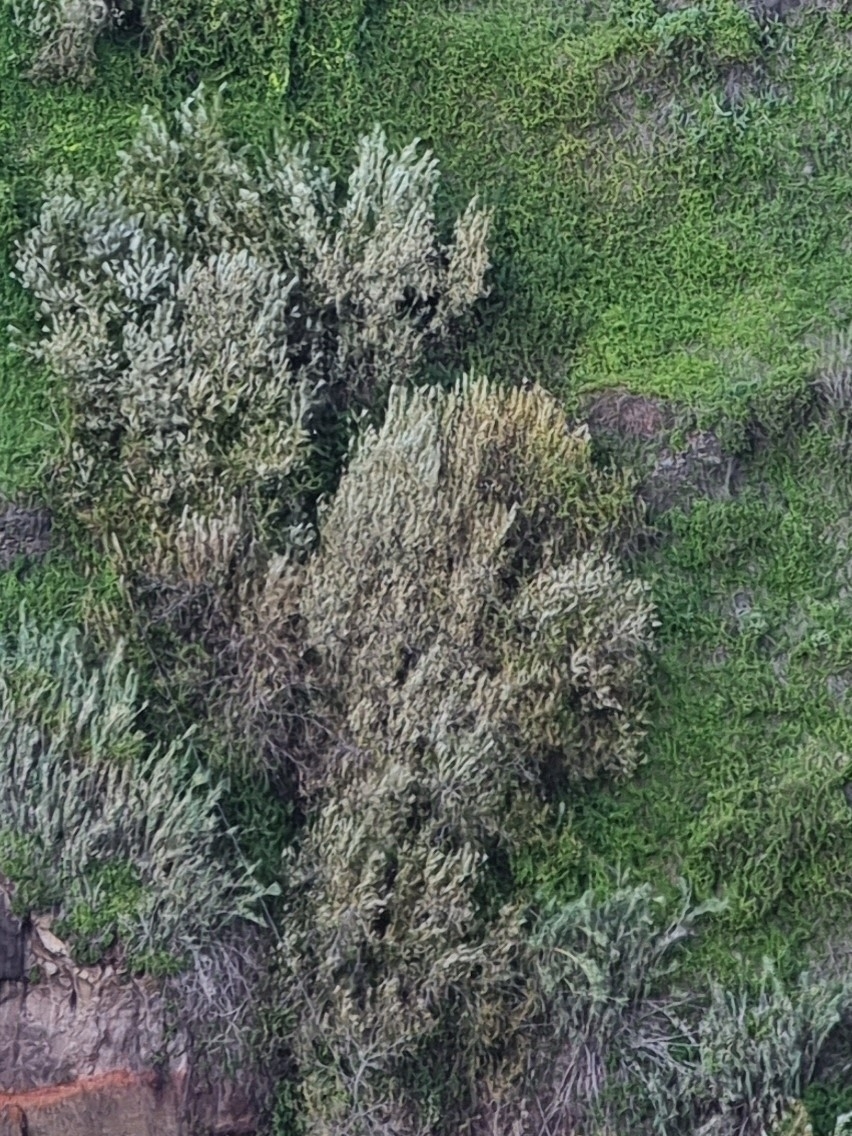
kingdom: Plantae
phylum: Tracheophyta
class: Magnoliopsida
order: Malpighiales
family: Salicaceae
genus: Salix
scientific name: Salix canariensis
